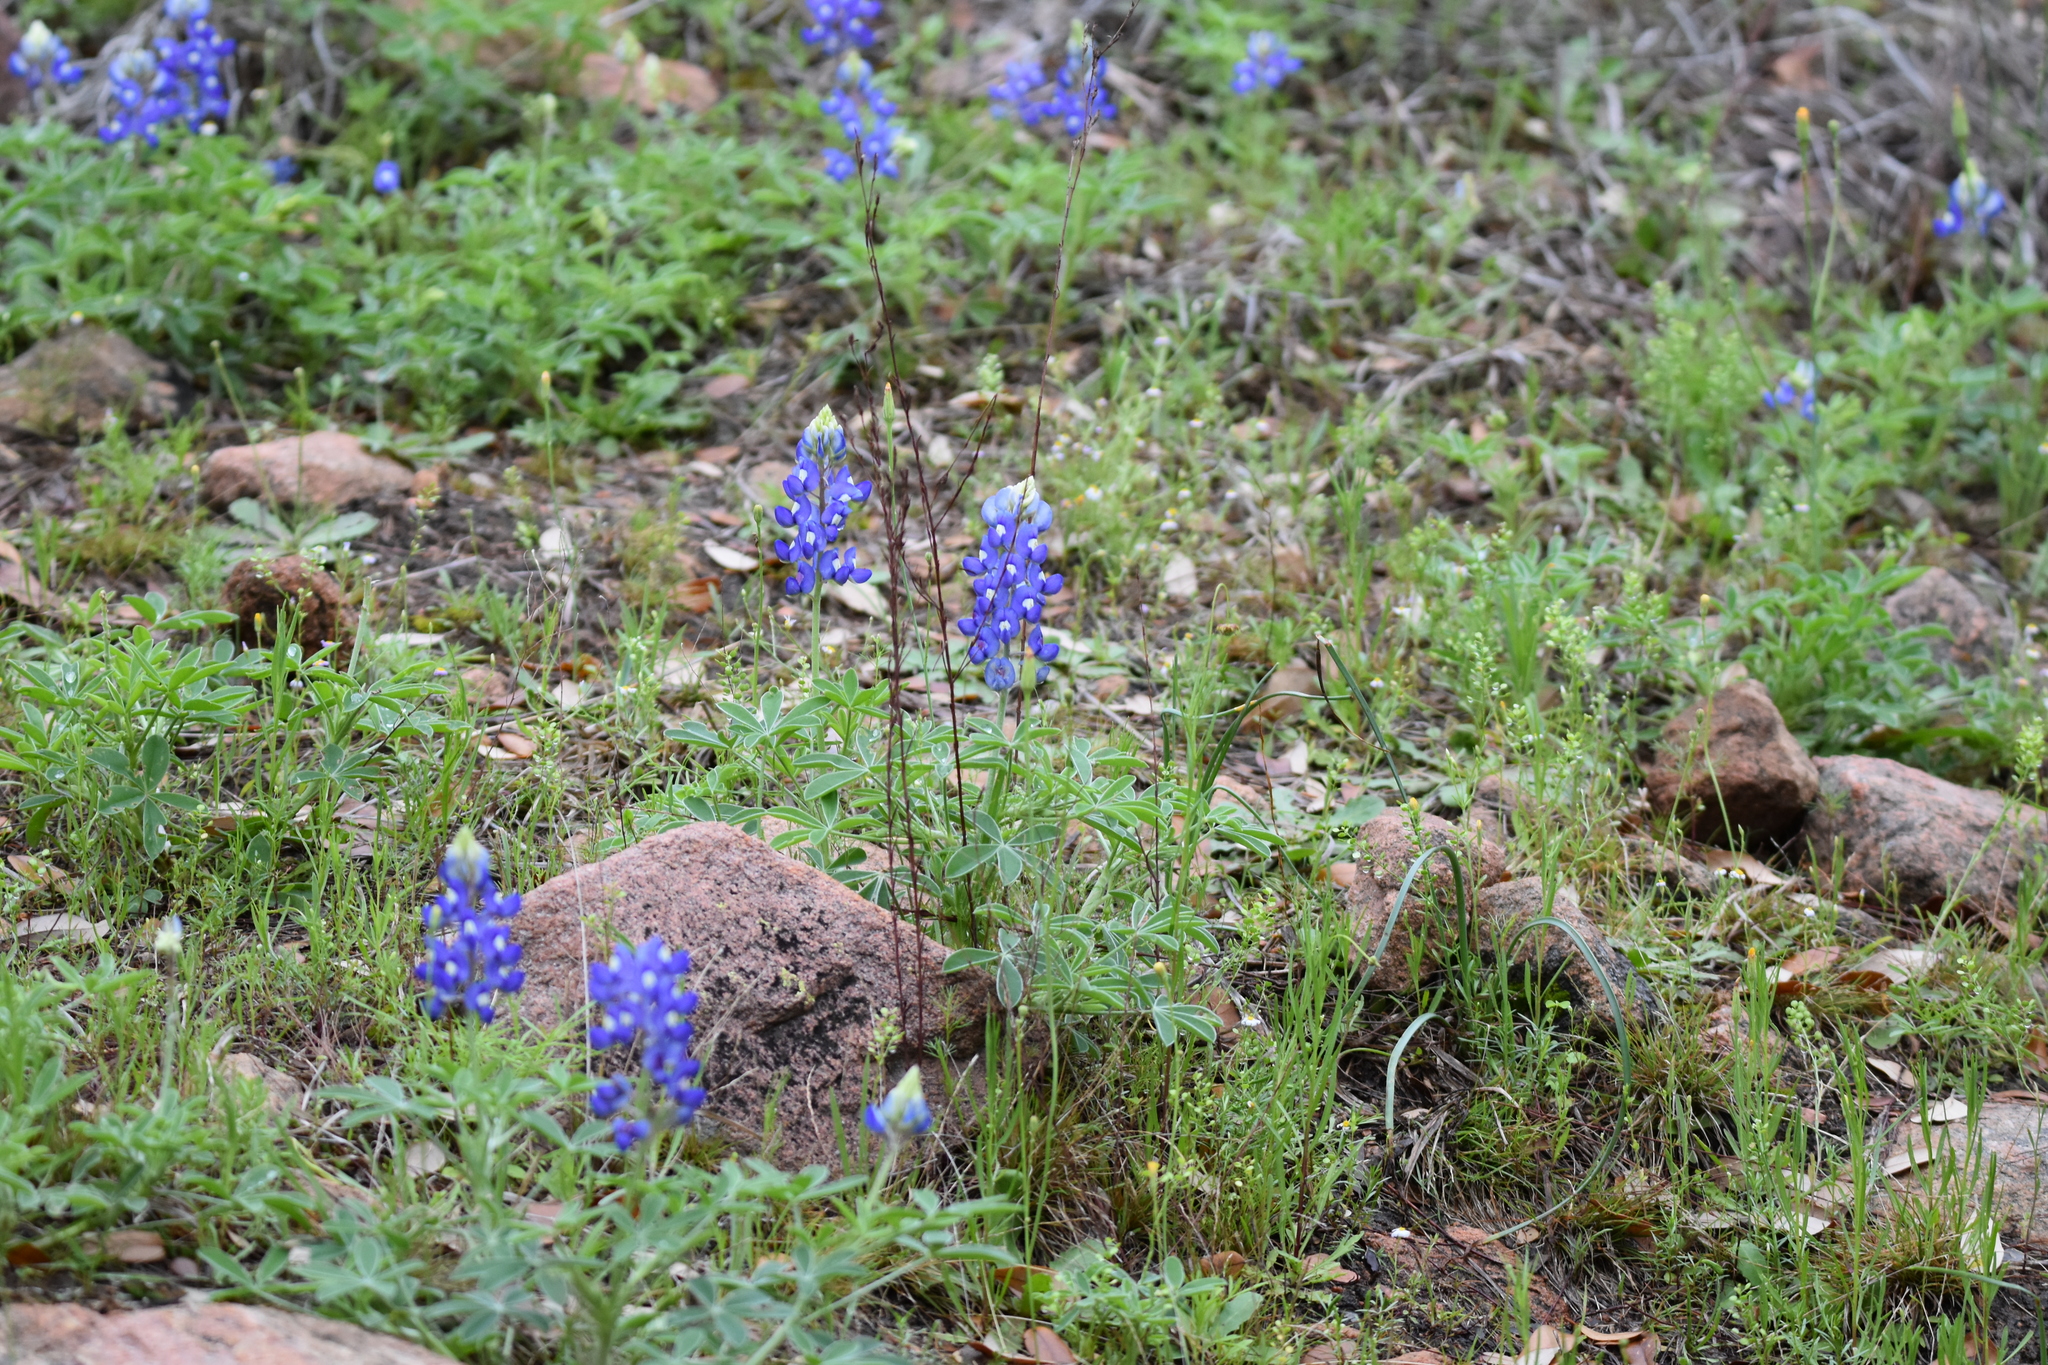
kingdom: Plantae
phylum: Tracheophyta
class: Magnoliopsida
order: Fabales
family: Fabaceae
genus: Lupinus
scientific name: Lupinus texensis
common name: Texas bluebonnet
